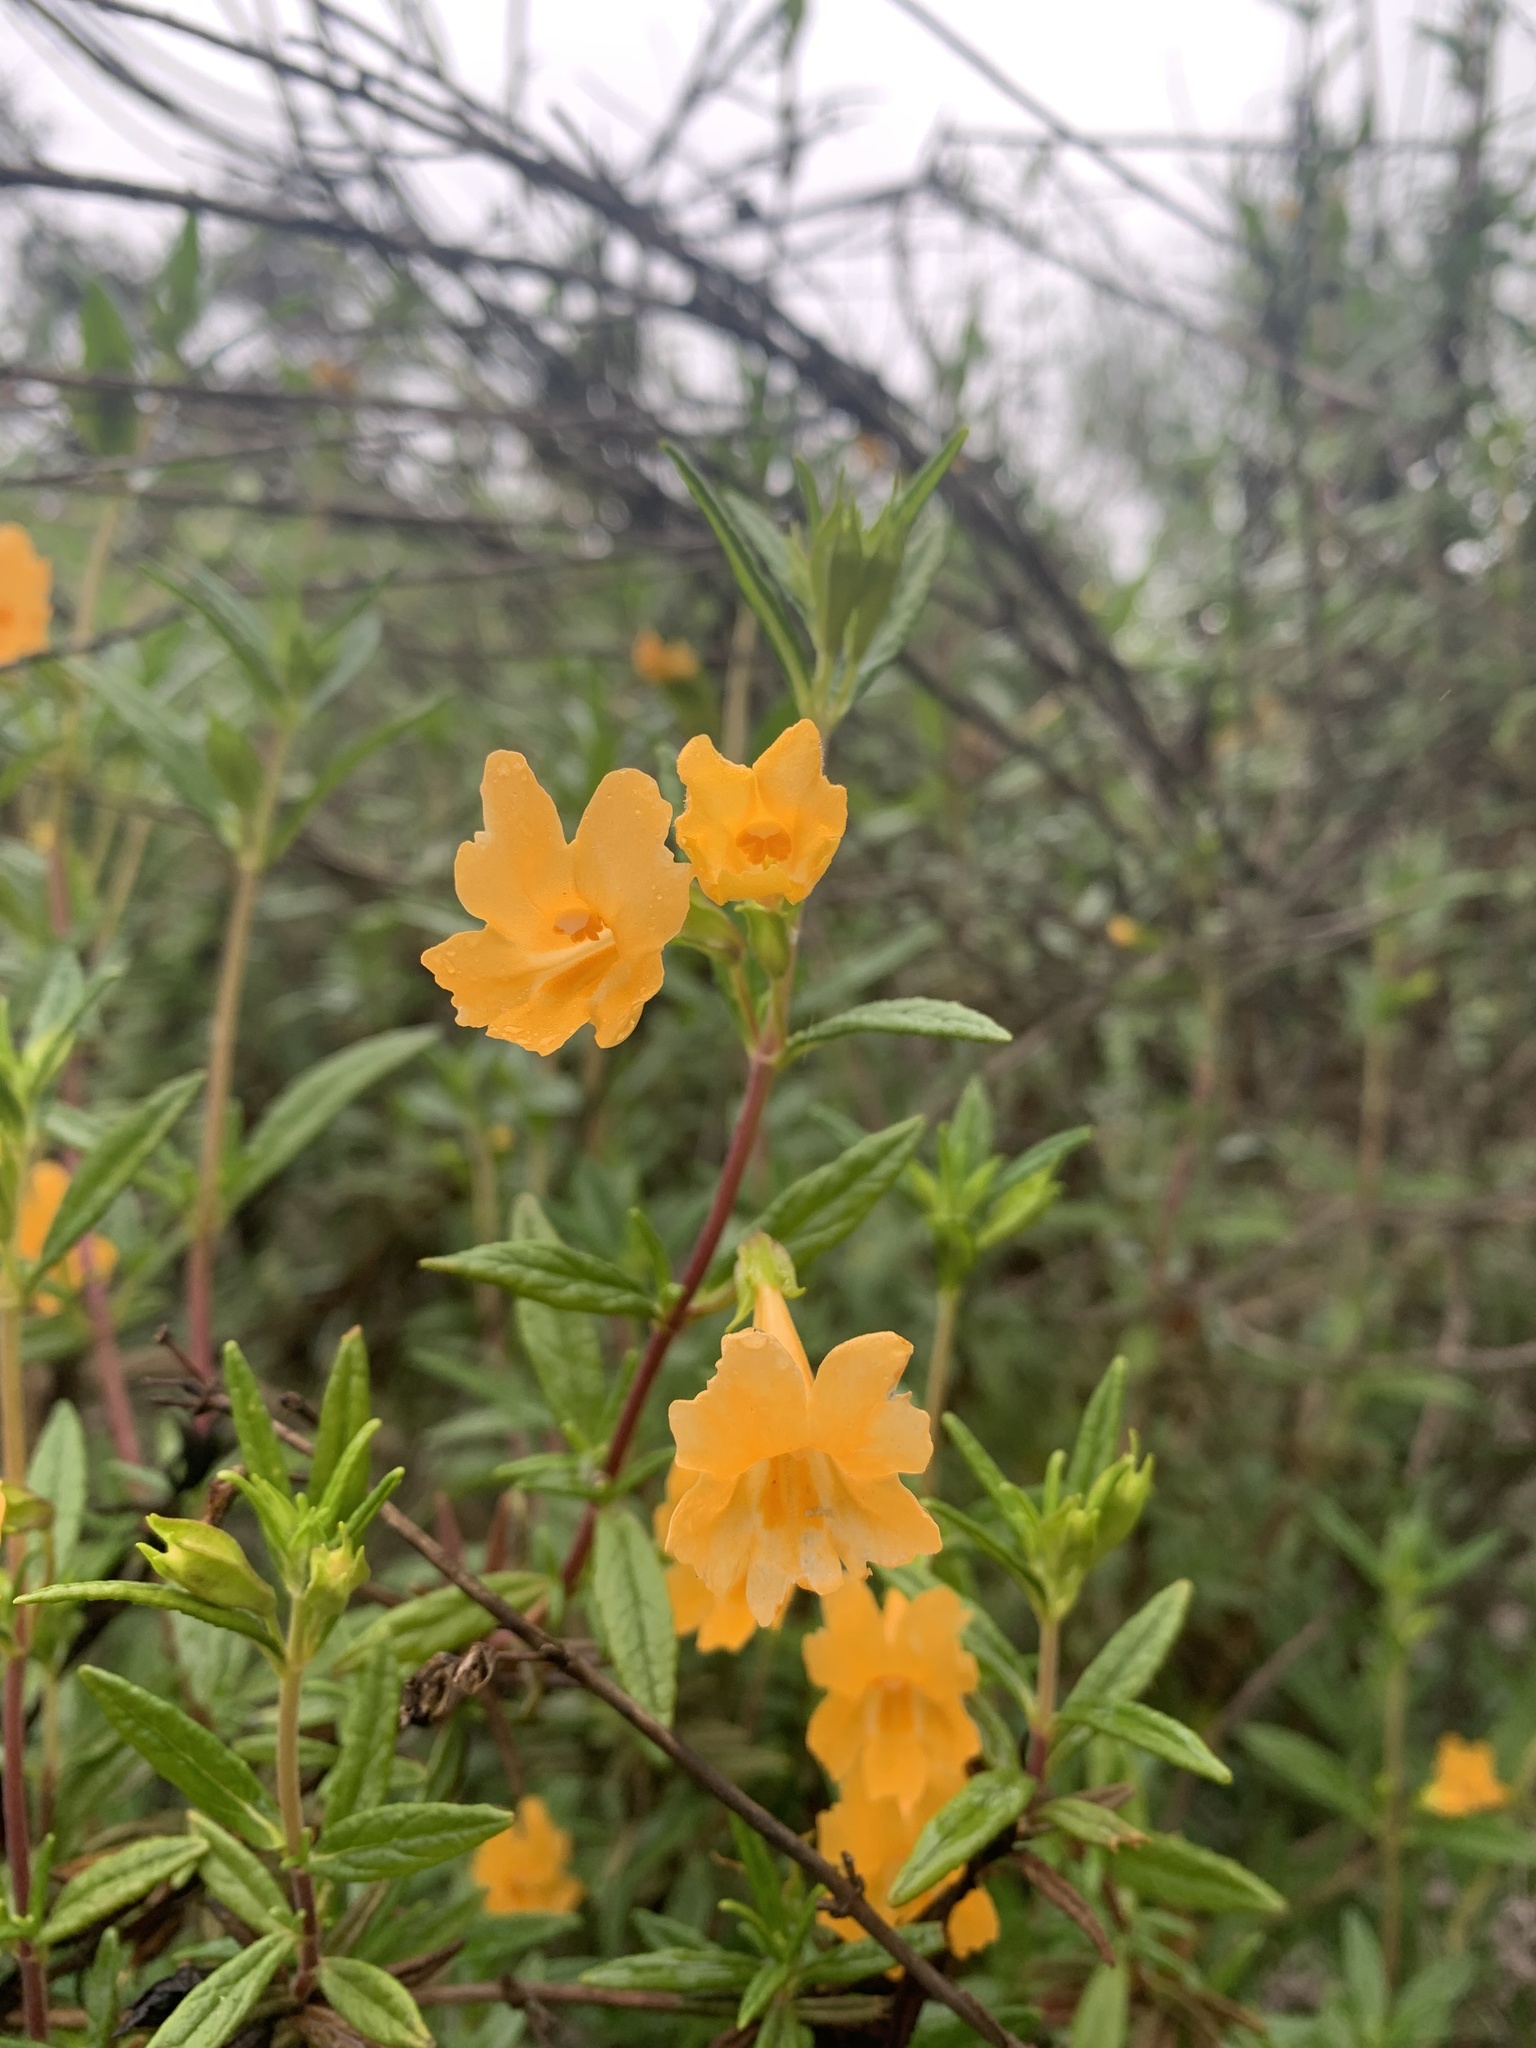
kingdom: Plantae
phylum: Tracheophyta
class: Magnoliopsida
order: Lamiales
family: Phrymaceae
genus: Diplacus
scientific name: Diplacus aurantiacus
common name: Bush monkey-flower
